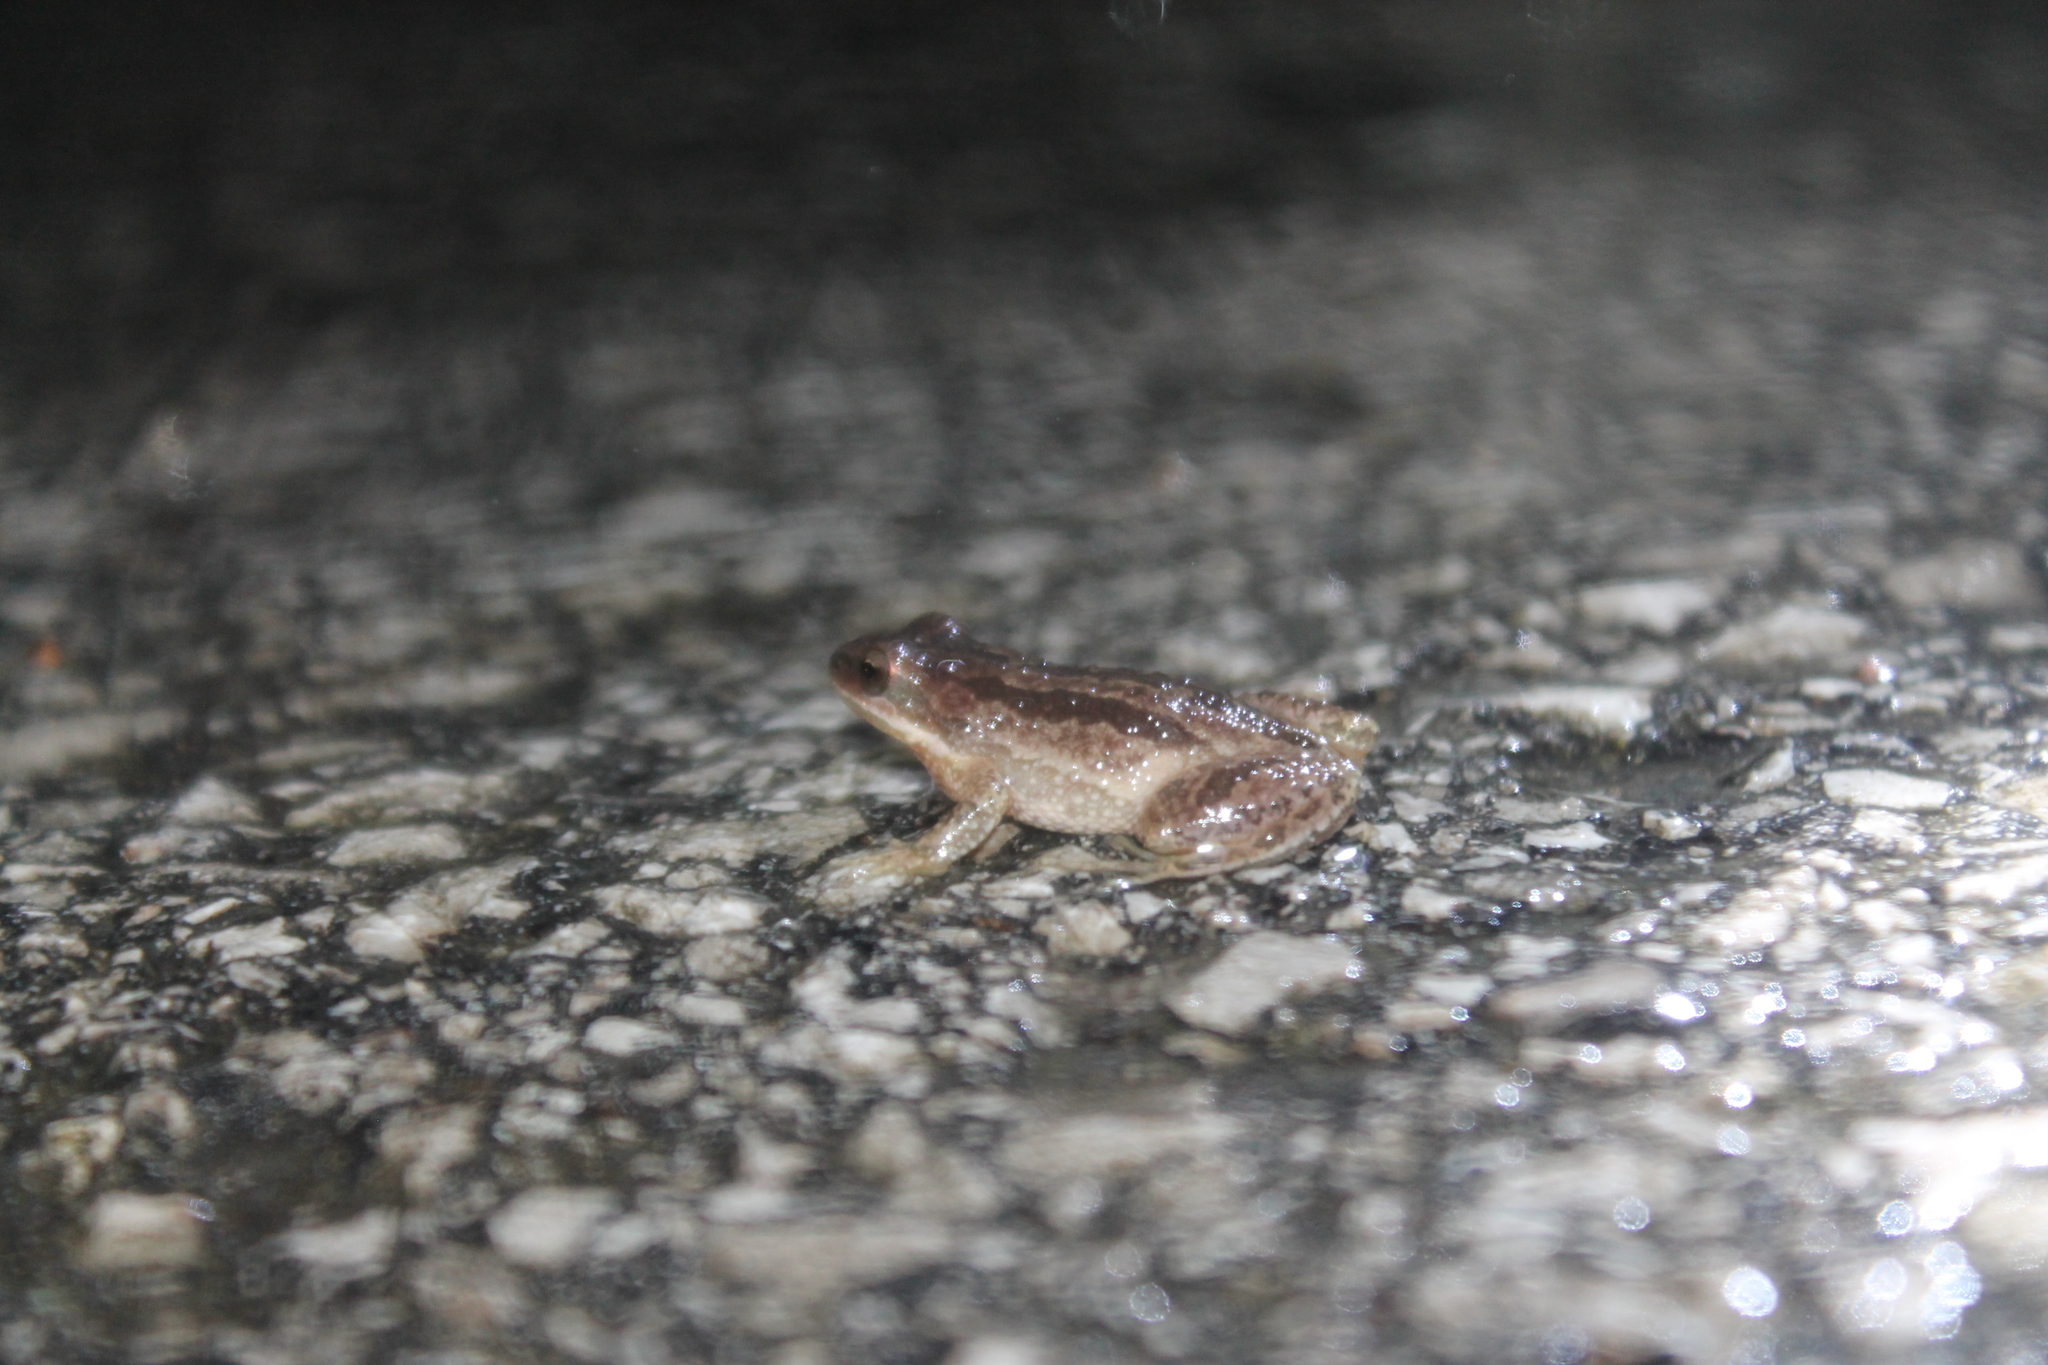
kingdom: Animalia
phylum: Chordata
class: Amphibia
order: Anura
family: Hylidae
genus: Pseudacris
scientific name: Pseudacris feriarum
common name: Upland chorus frog
